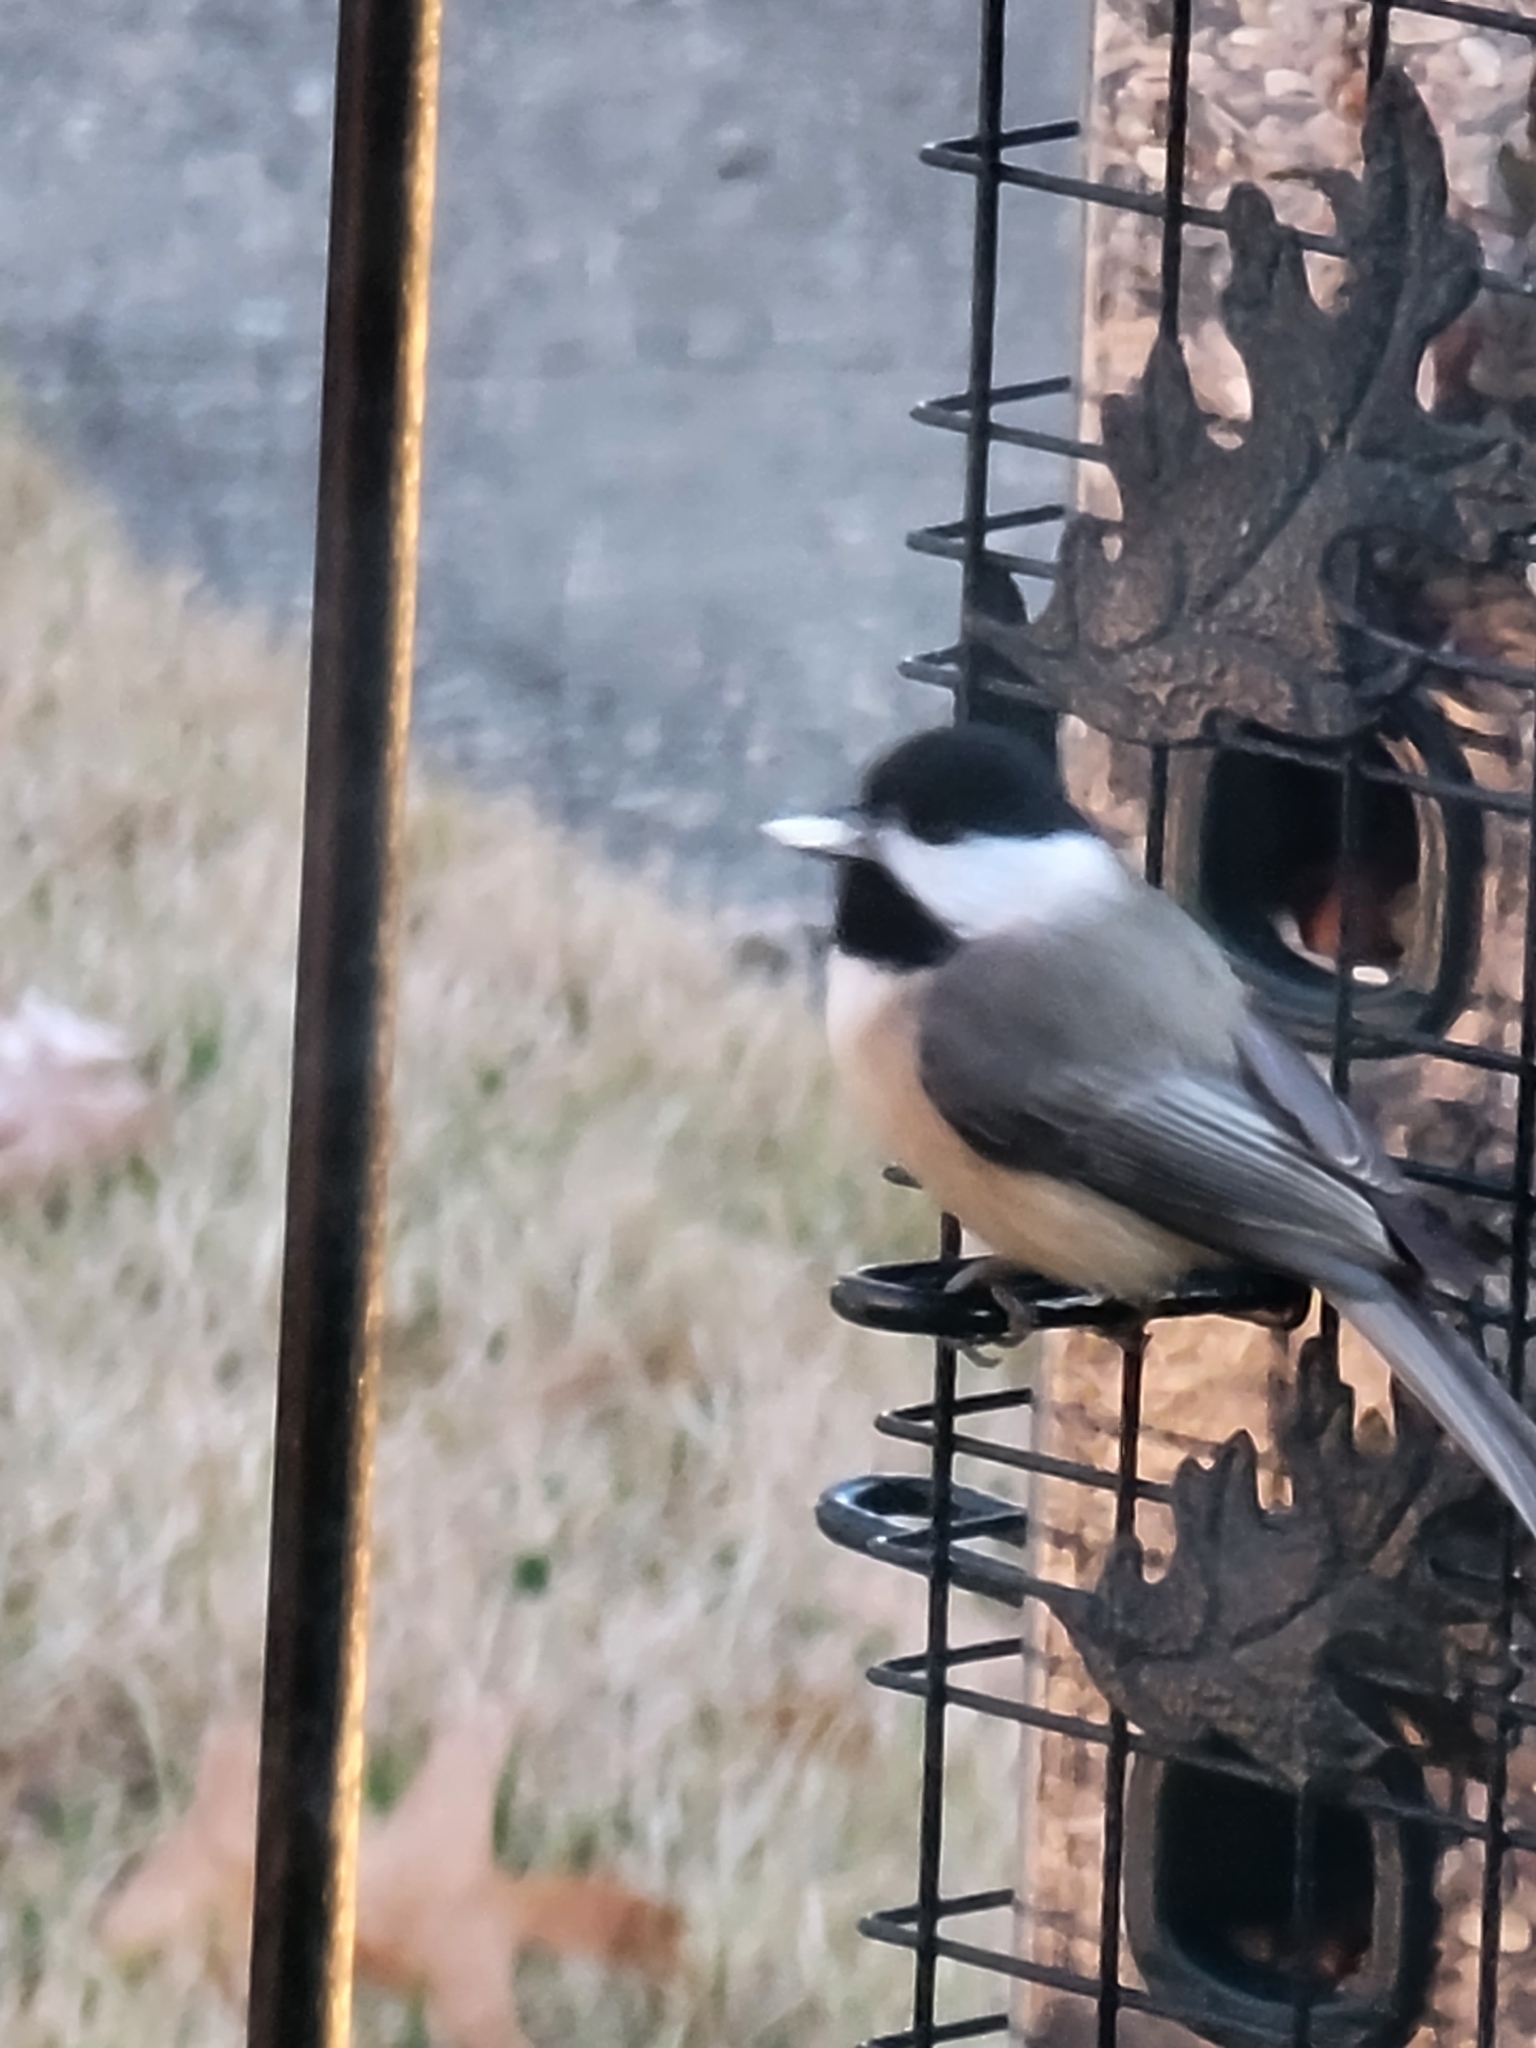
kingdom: Animalia
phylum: Chordata
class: Aves
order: Passeriformes
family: Paridae
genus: Poecile
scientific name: Poecile carolinensis
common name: Carolina chickadee
